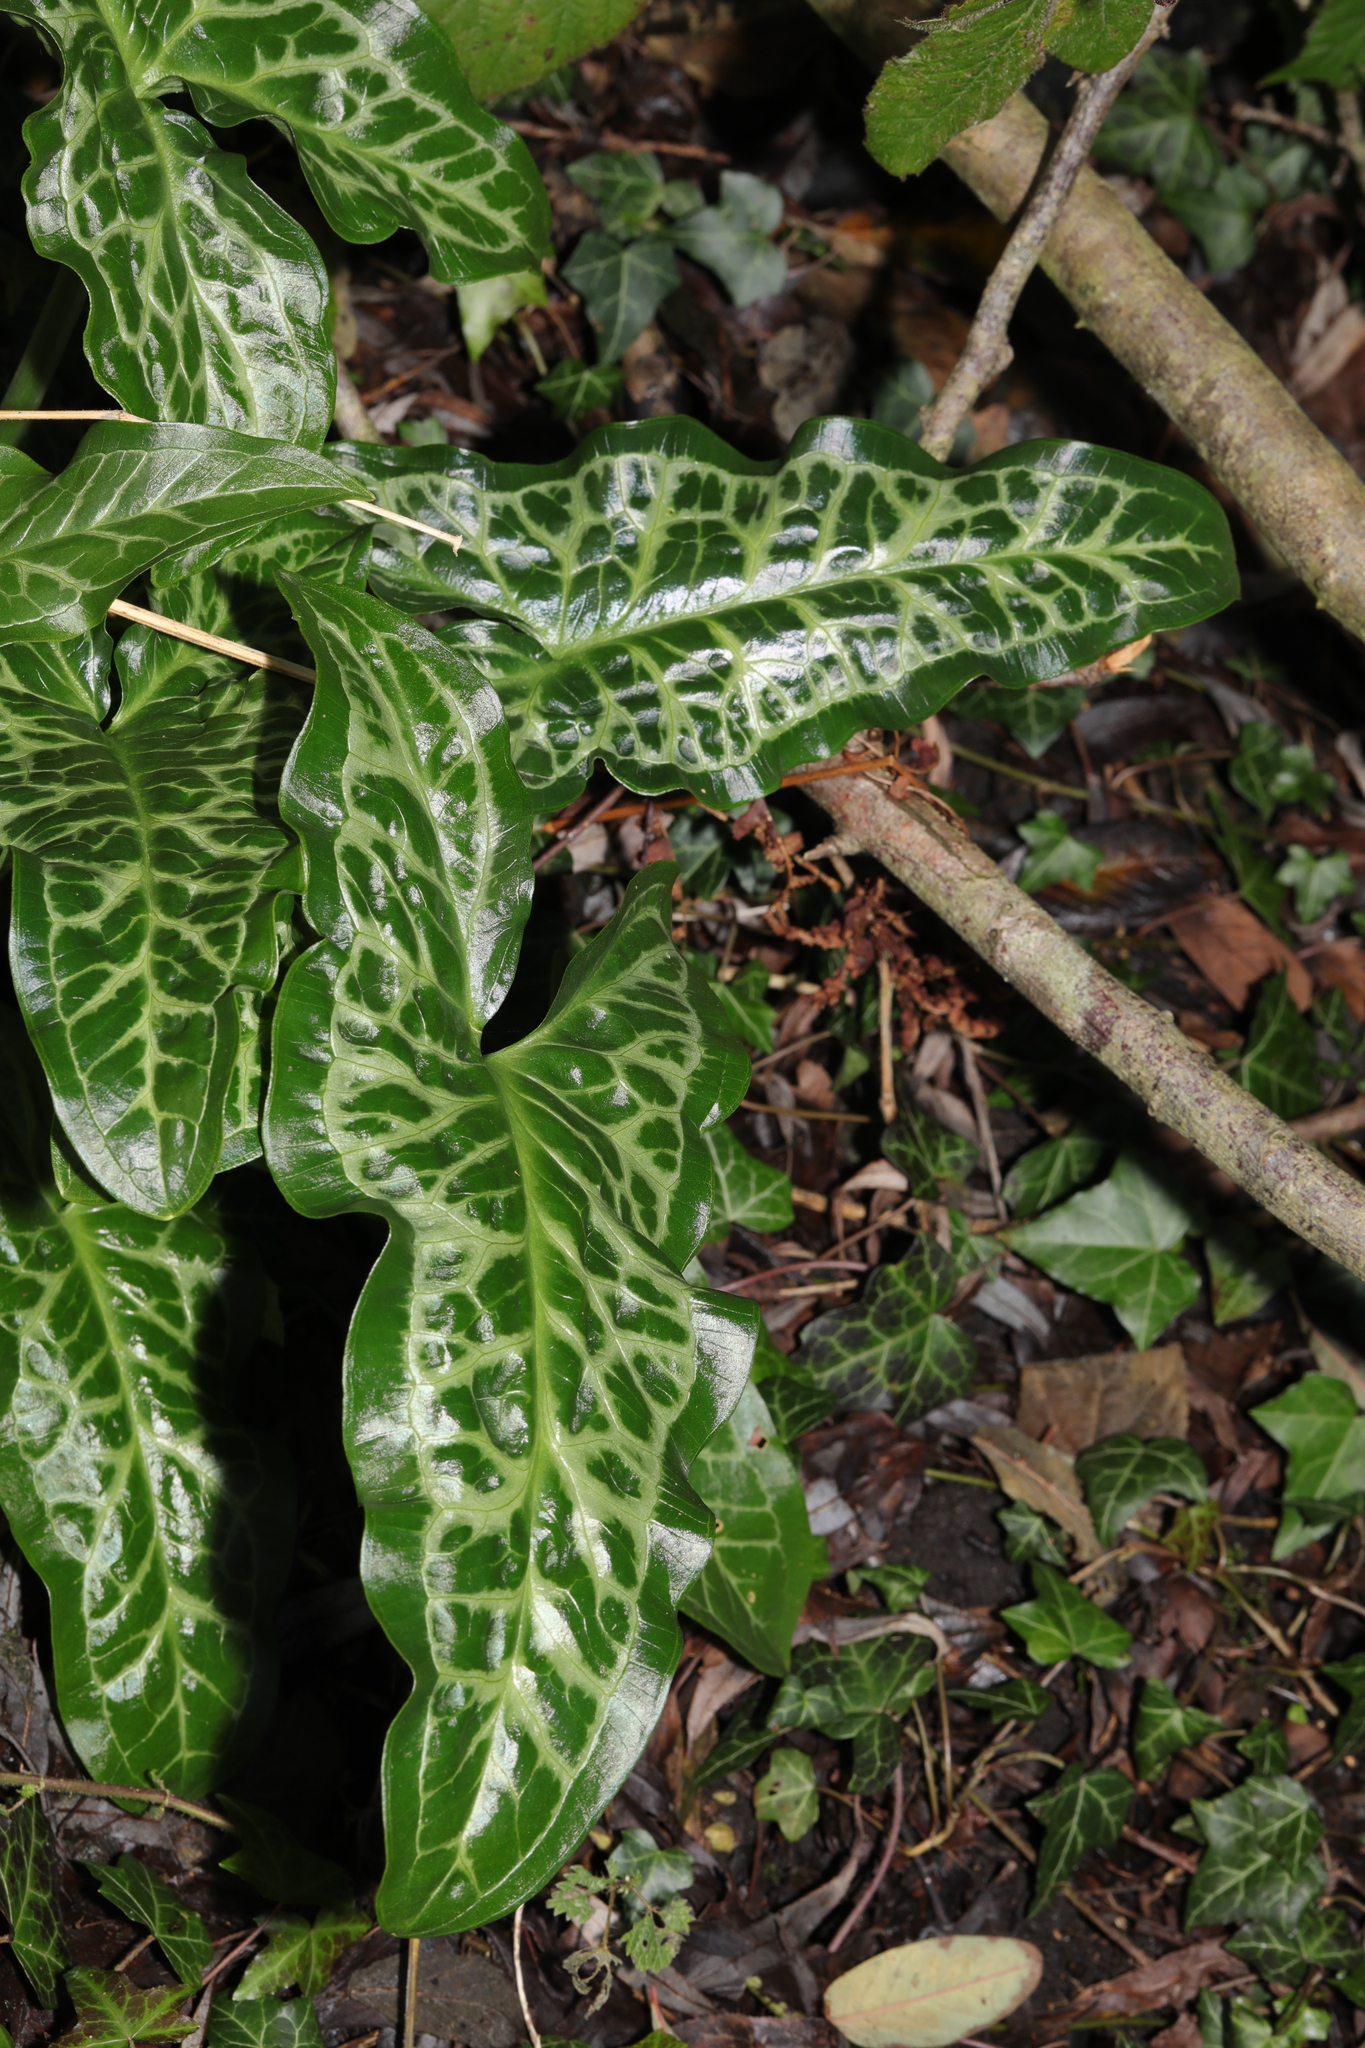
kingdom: Plantae
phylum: Tracheophyta
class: Liliopsida
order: Alismatales
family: Araceae
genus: Arum
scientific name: Arum italicum
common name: Italian lords-and-ladies
